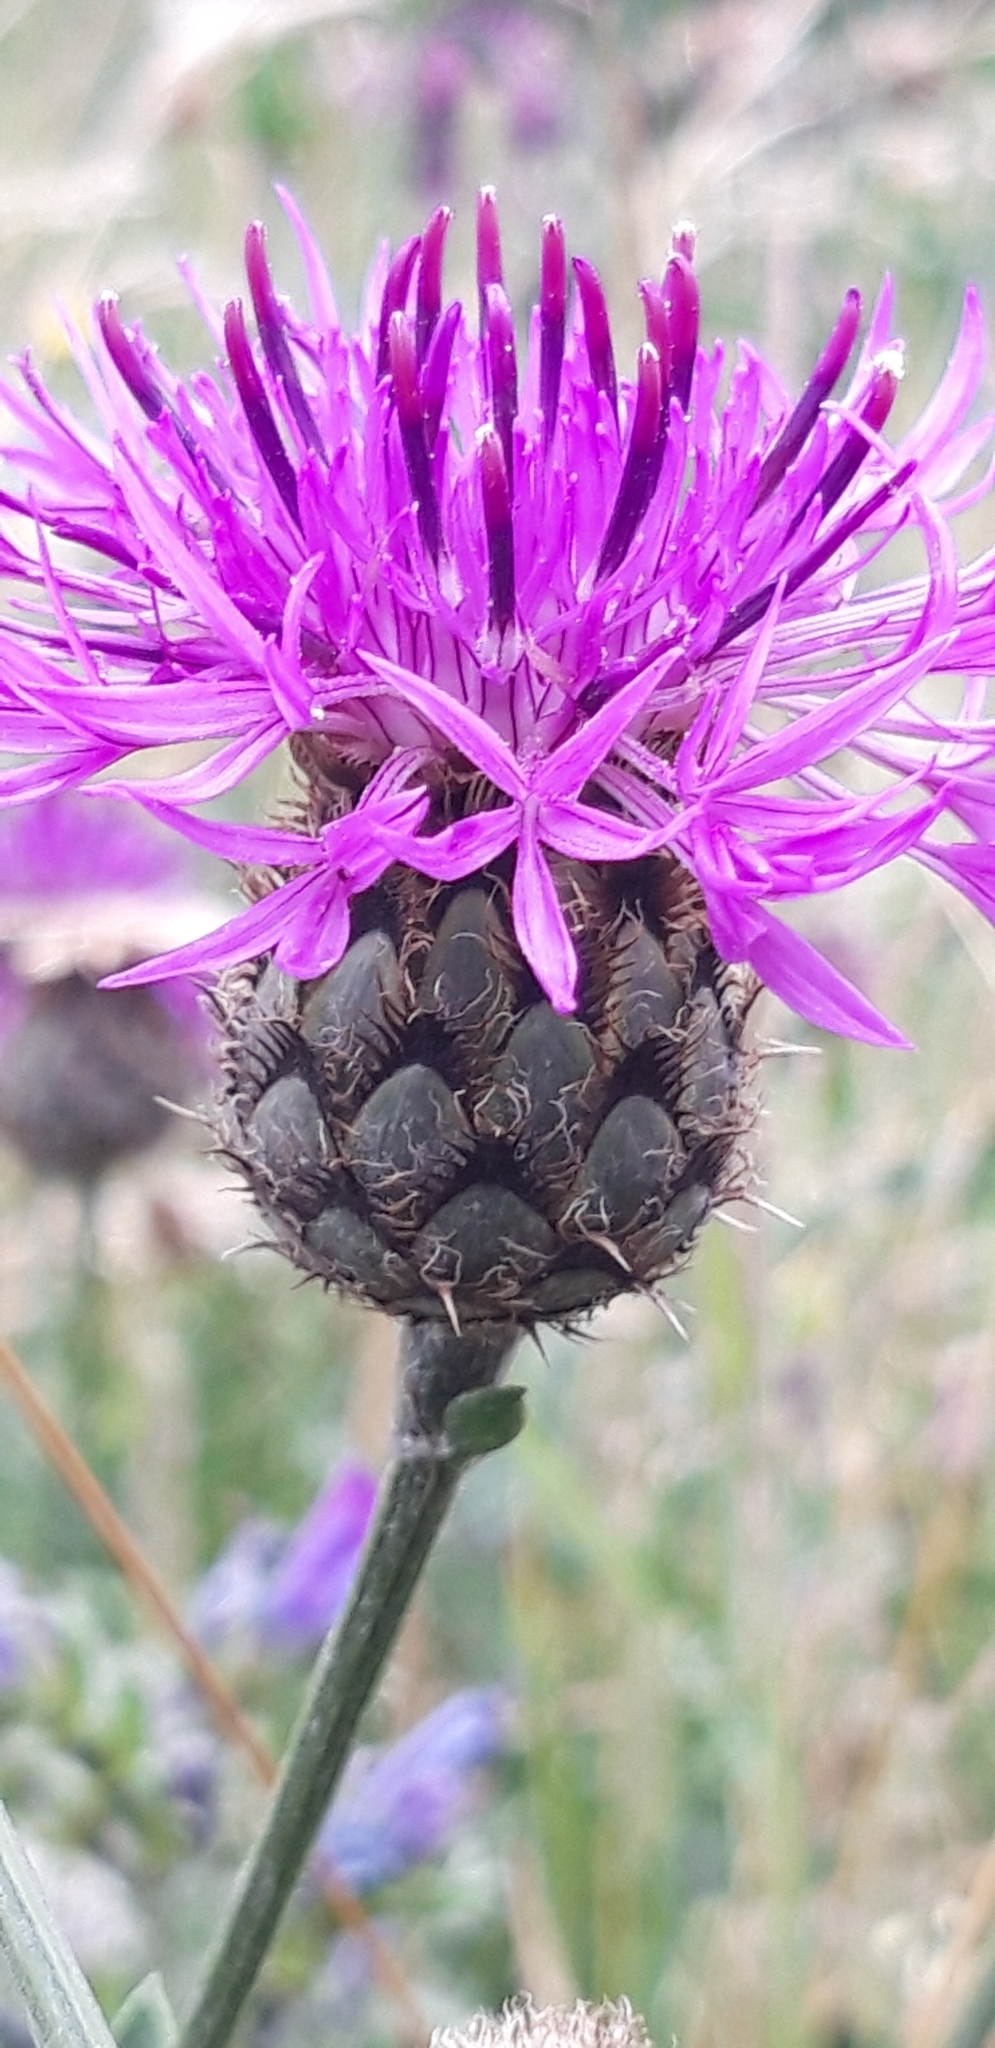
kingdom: Plantae
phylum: Tracheophyta
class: Magnoliopsida
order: Asterales
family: Asteraceae
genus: Centaurea
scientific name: Centaurea scabiosa
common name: Greater knapweed
